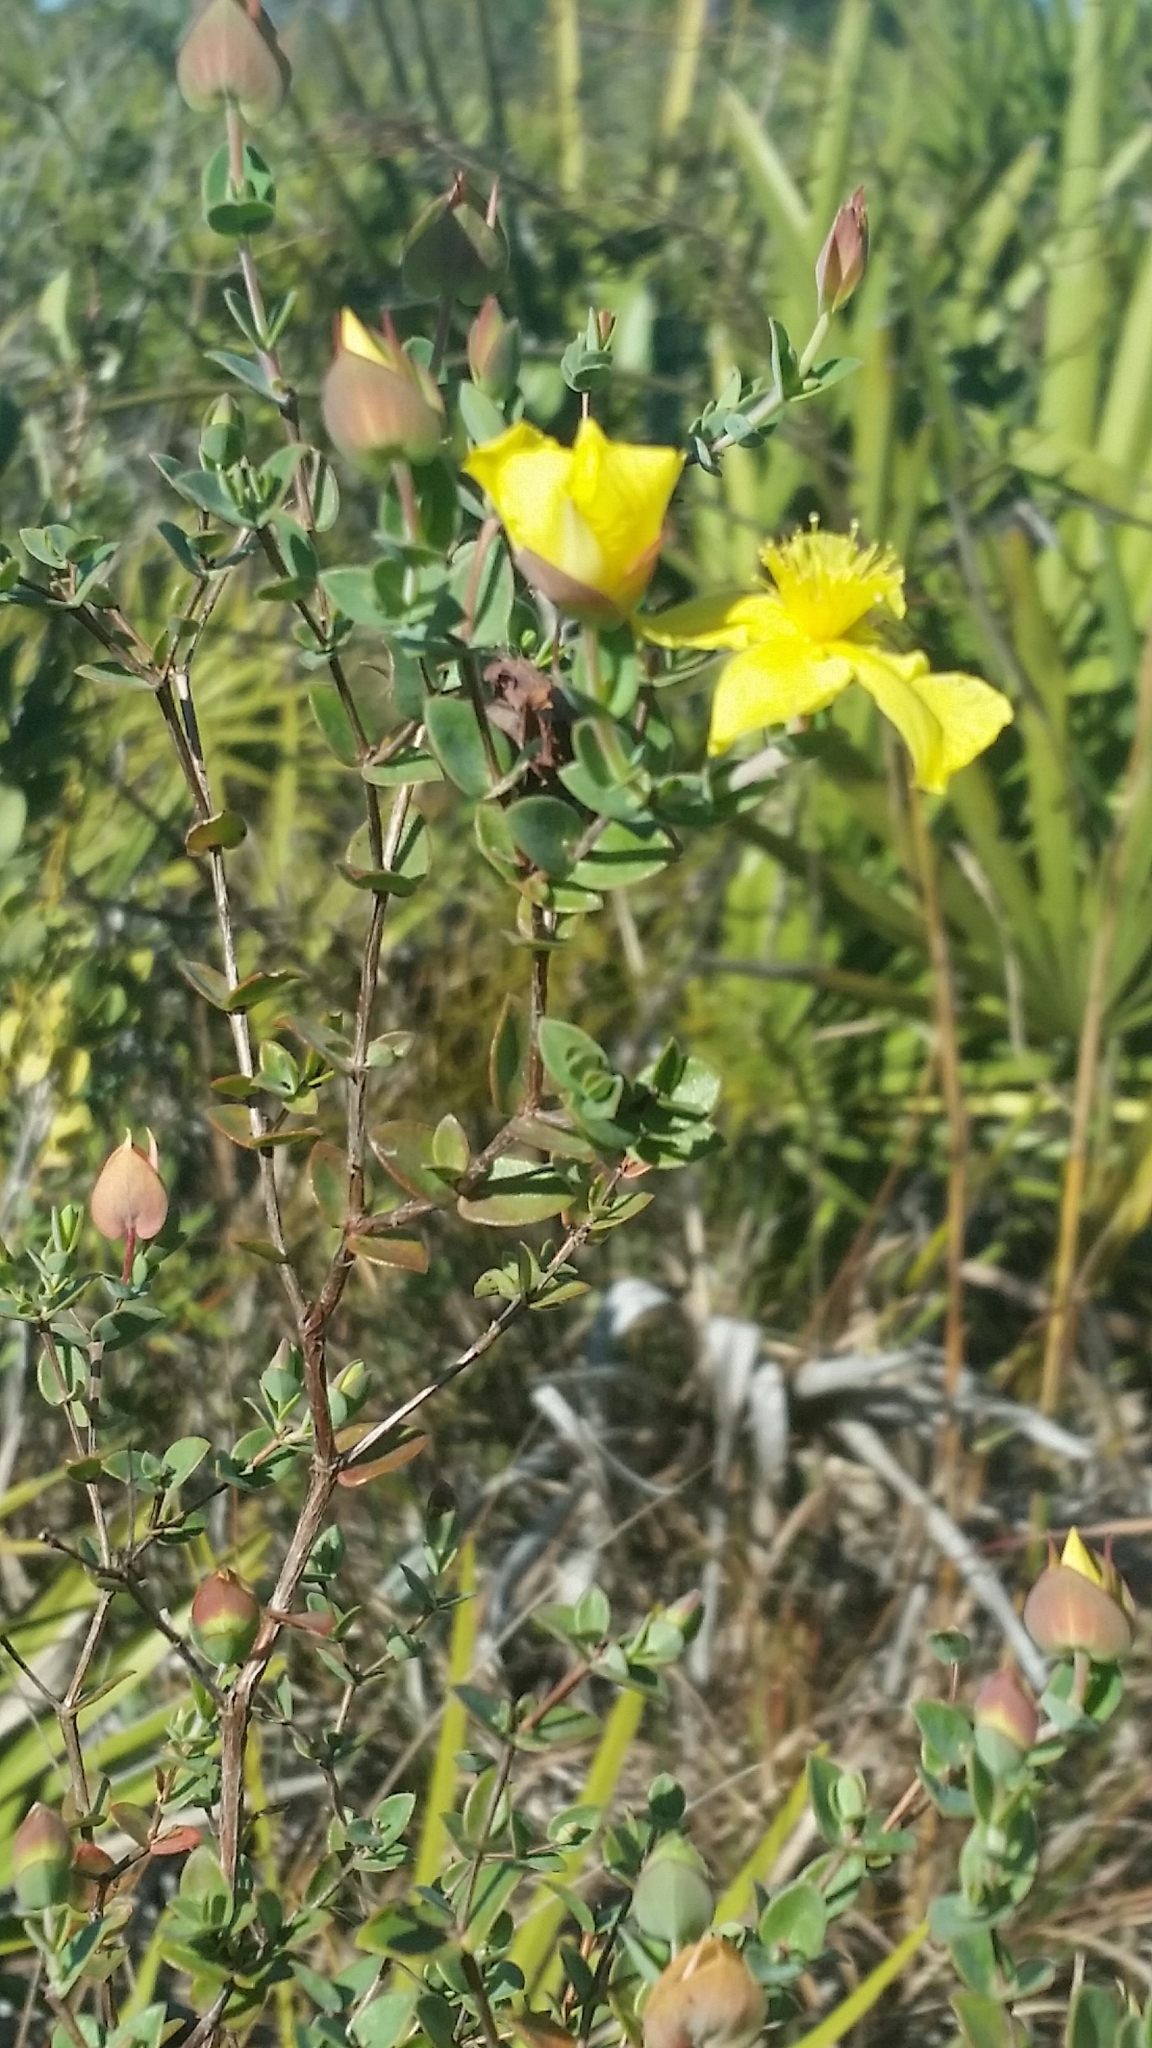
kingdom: Plantae
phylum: Tracheophyta
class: Magnoliopsida
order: Malpighiales
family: Hypericaceae
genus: Hypericum
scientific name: Hypericum tetrapetalum
